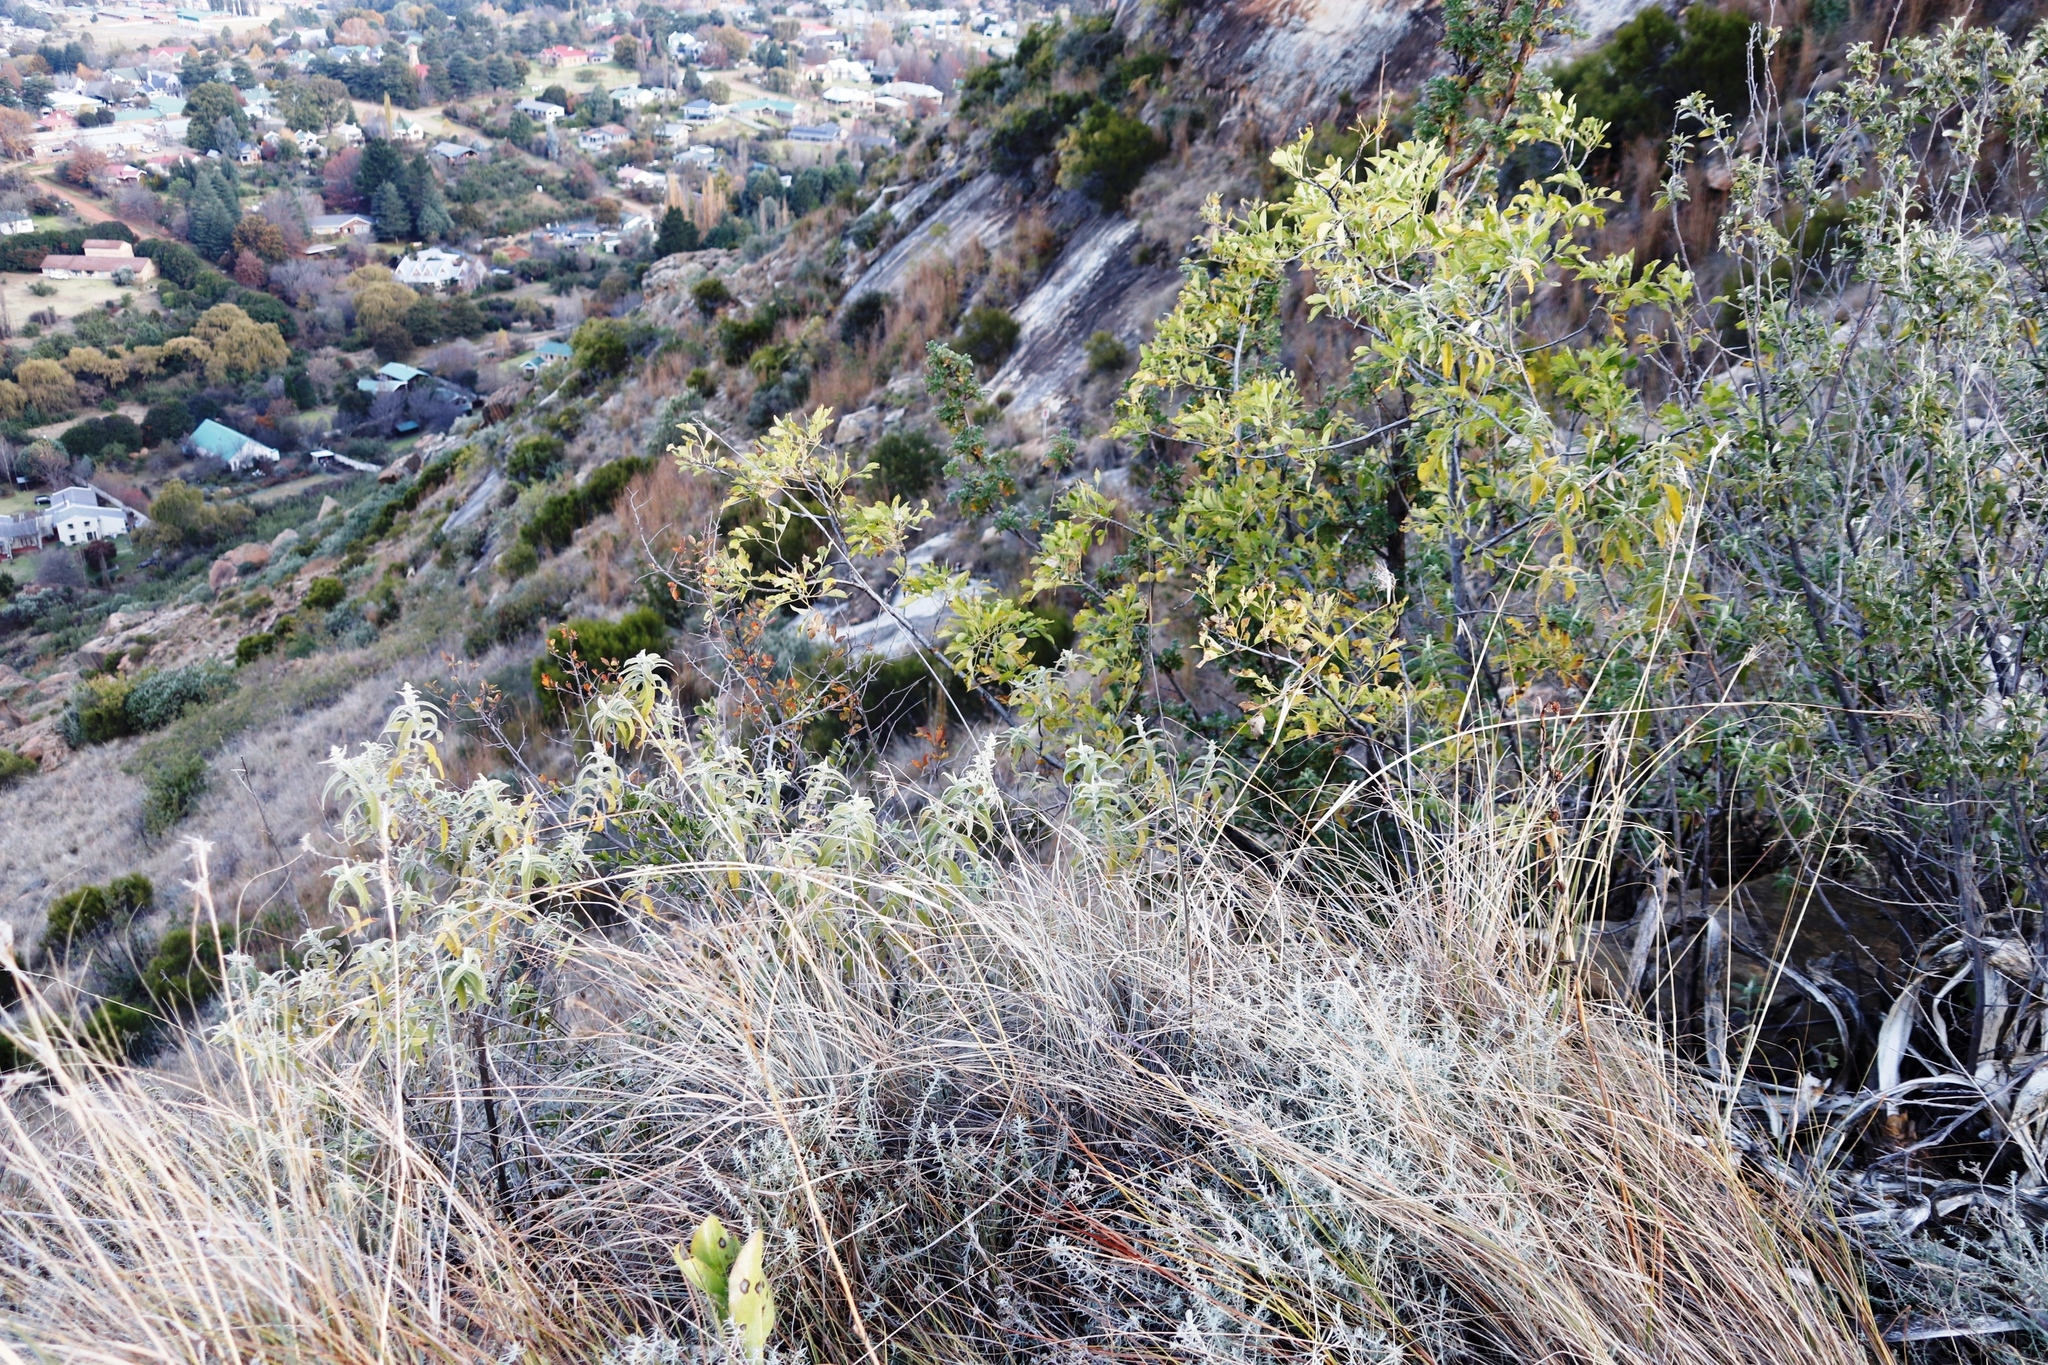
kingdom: Plantae
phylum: Tracheophyta
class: Magnoliopsida
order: Apiales
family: Apiaceae
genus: Heteromorpha
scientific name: Heteromorpha arborescens
